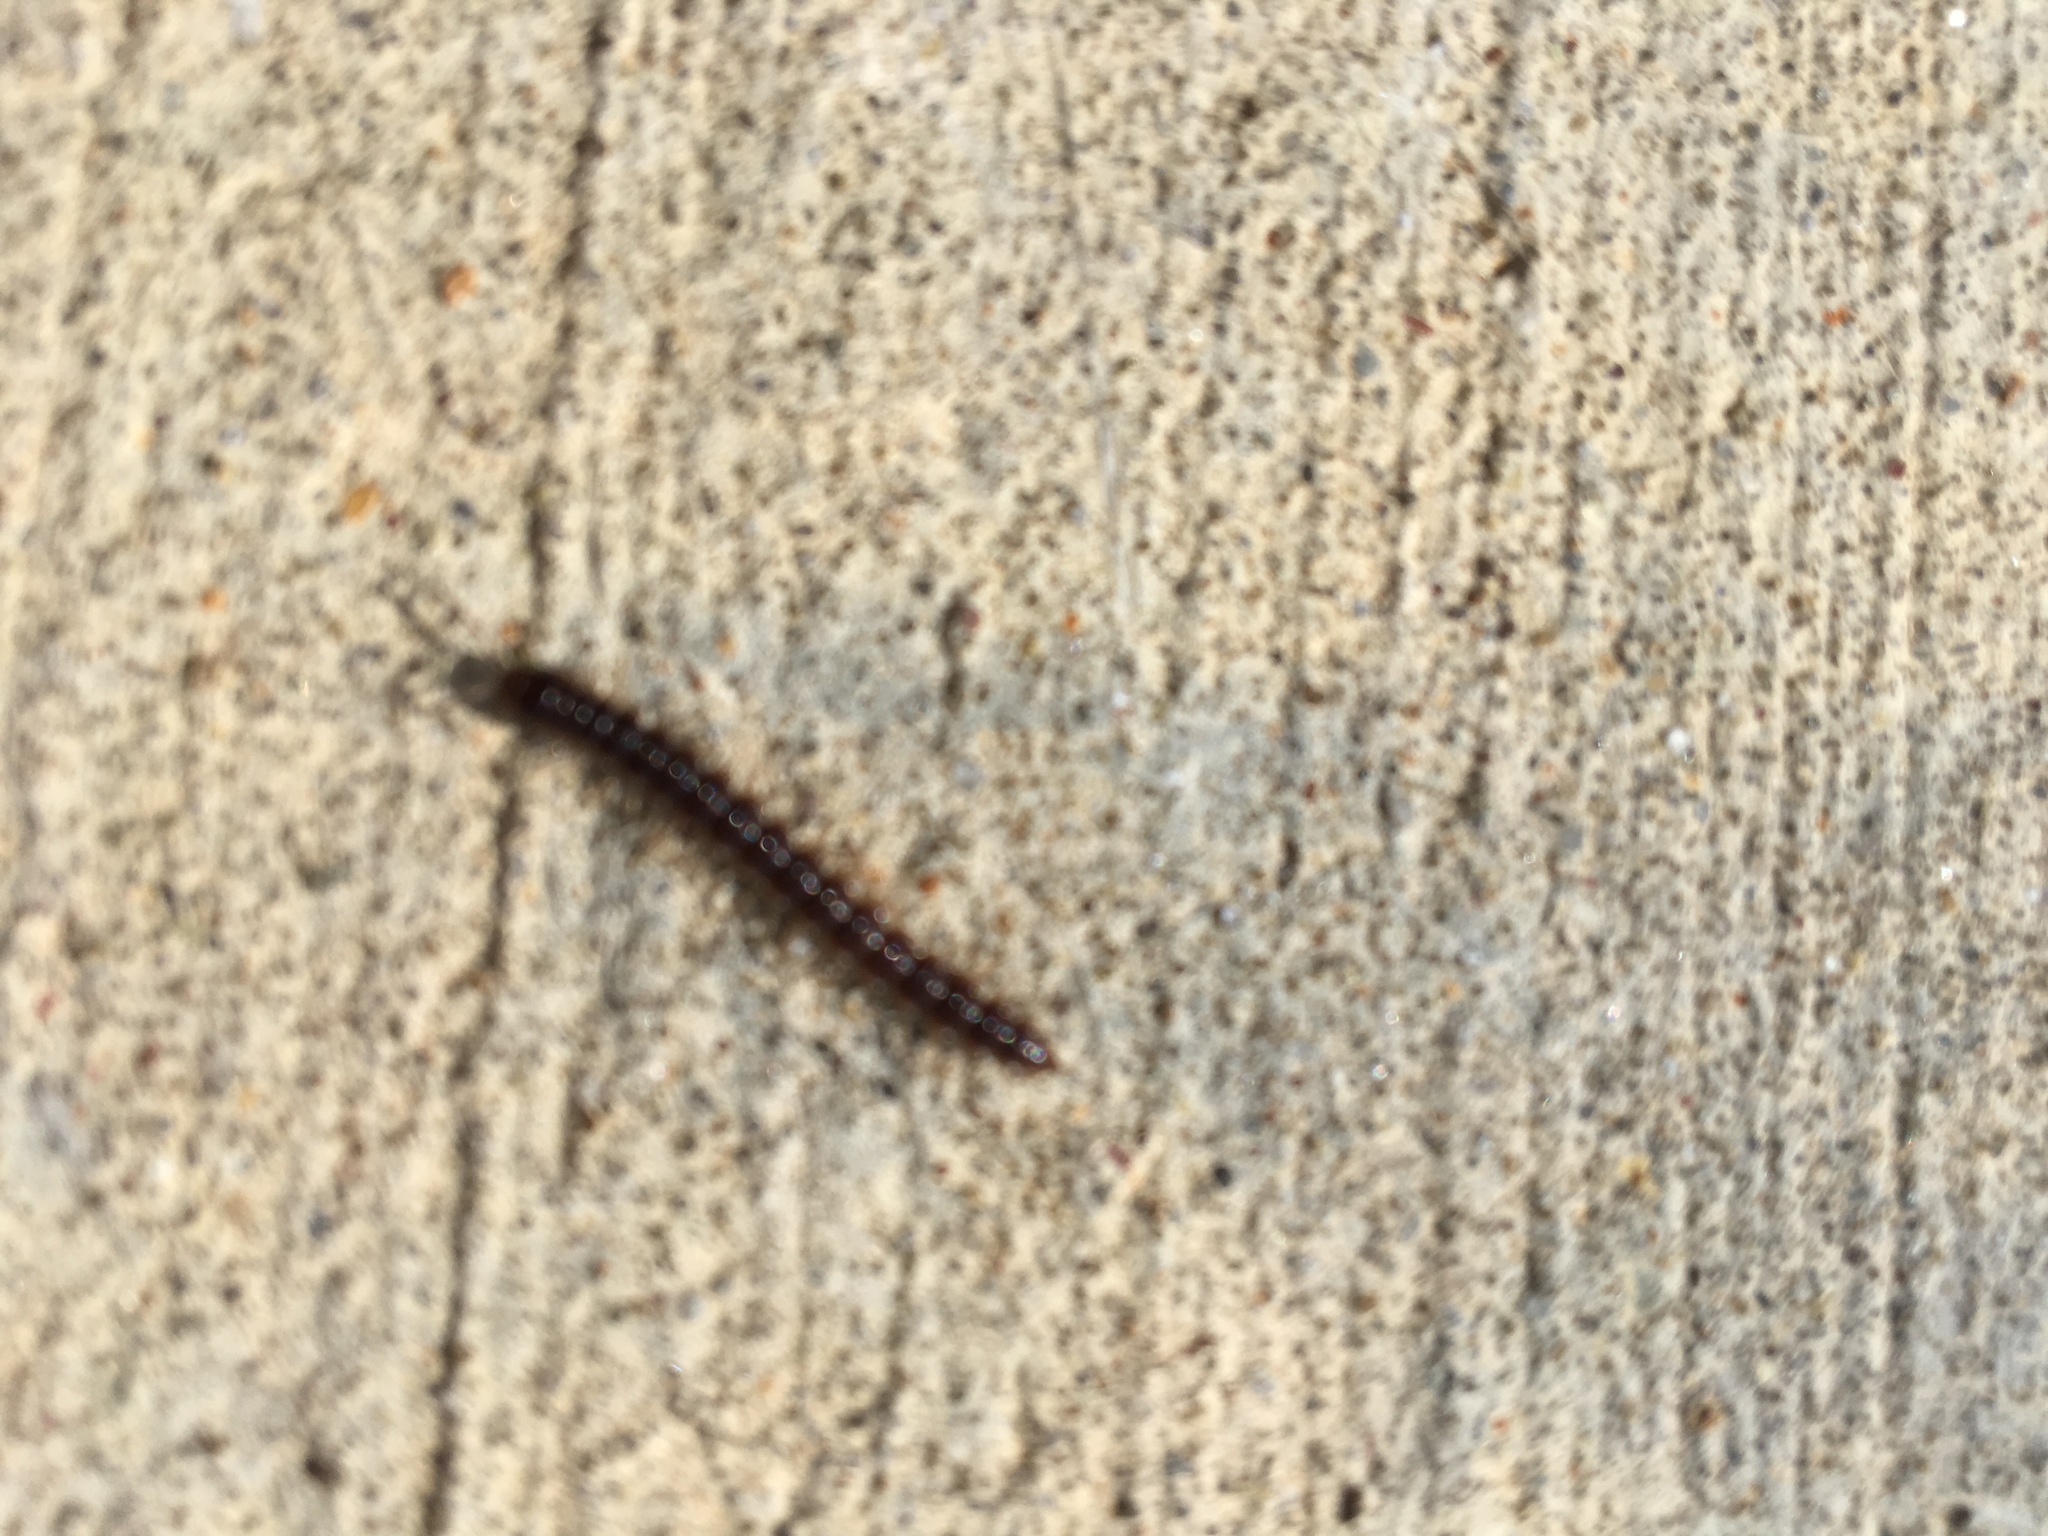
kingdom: Animalia
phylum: Arthropoda
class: Diplopoda
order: Polydesmida
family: Paradoxosomatidae
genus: Oxidus
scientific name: Oxidus gracilis
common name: Greenhouse millipede
